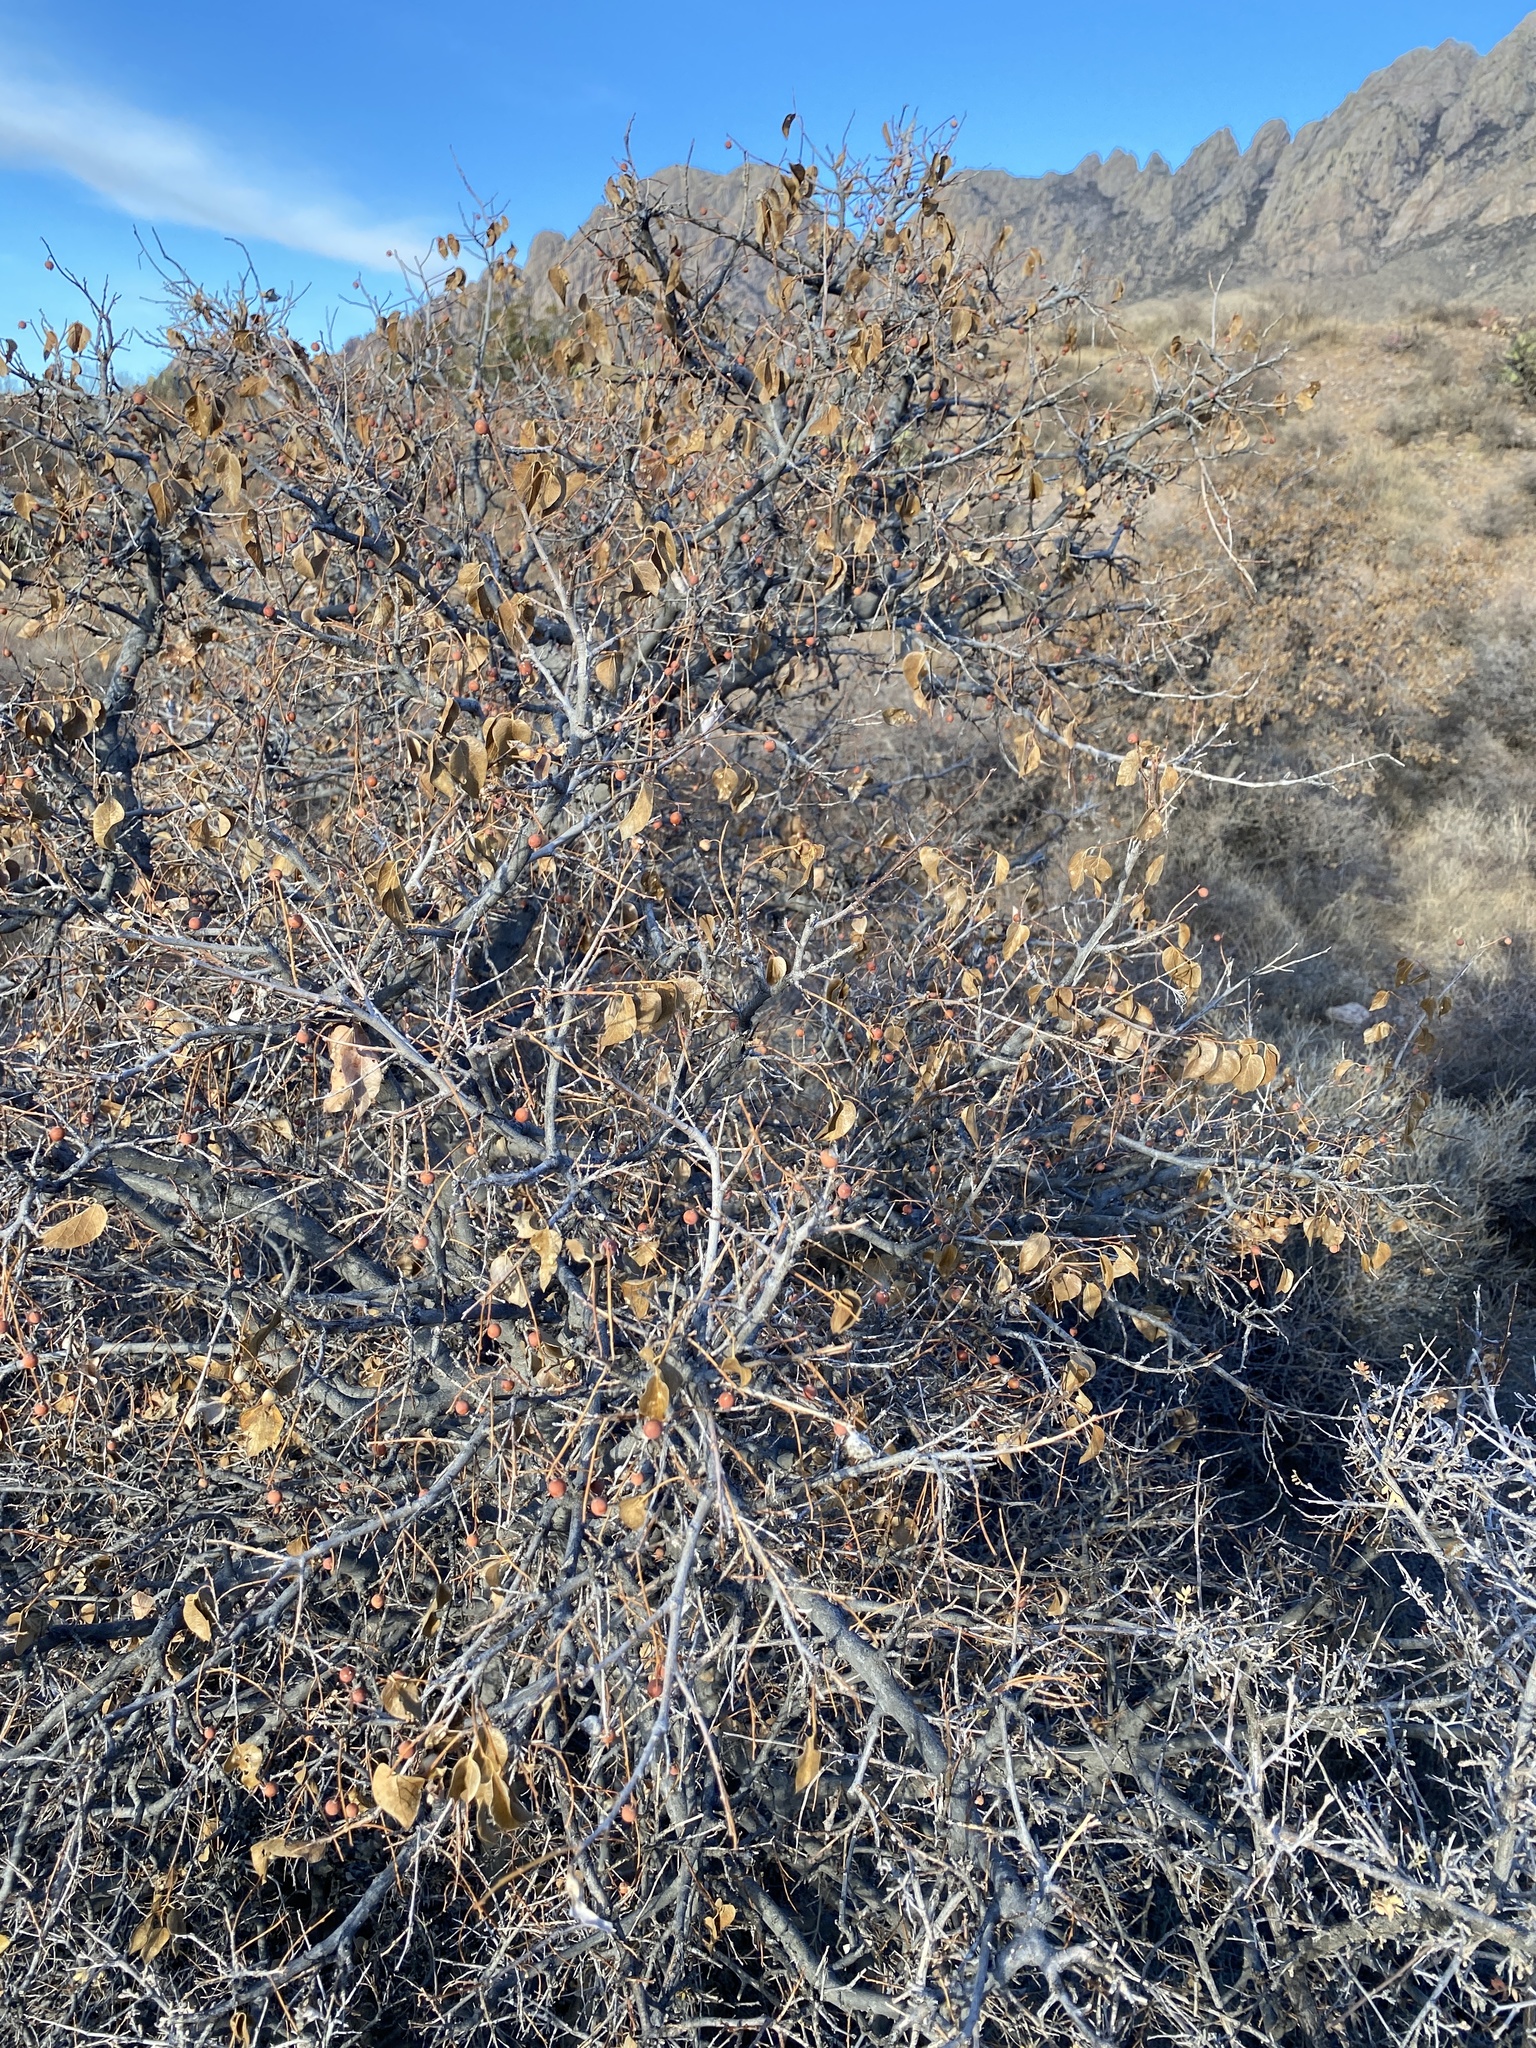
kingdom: Plantae
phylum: Tracheophyta
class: Magnoliopsida
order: Rosales
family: Cannabaceae
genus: Celtis
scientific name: Celtis reticulata
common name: Netleaf hackberry
